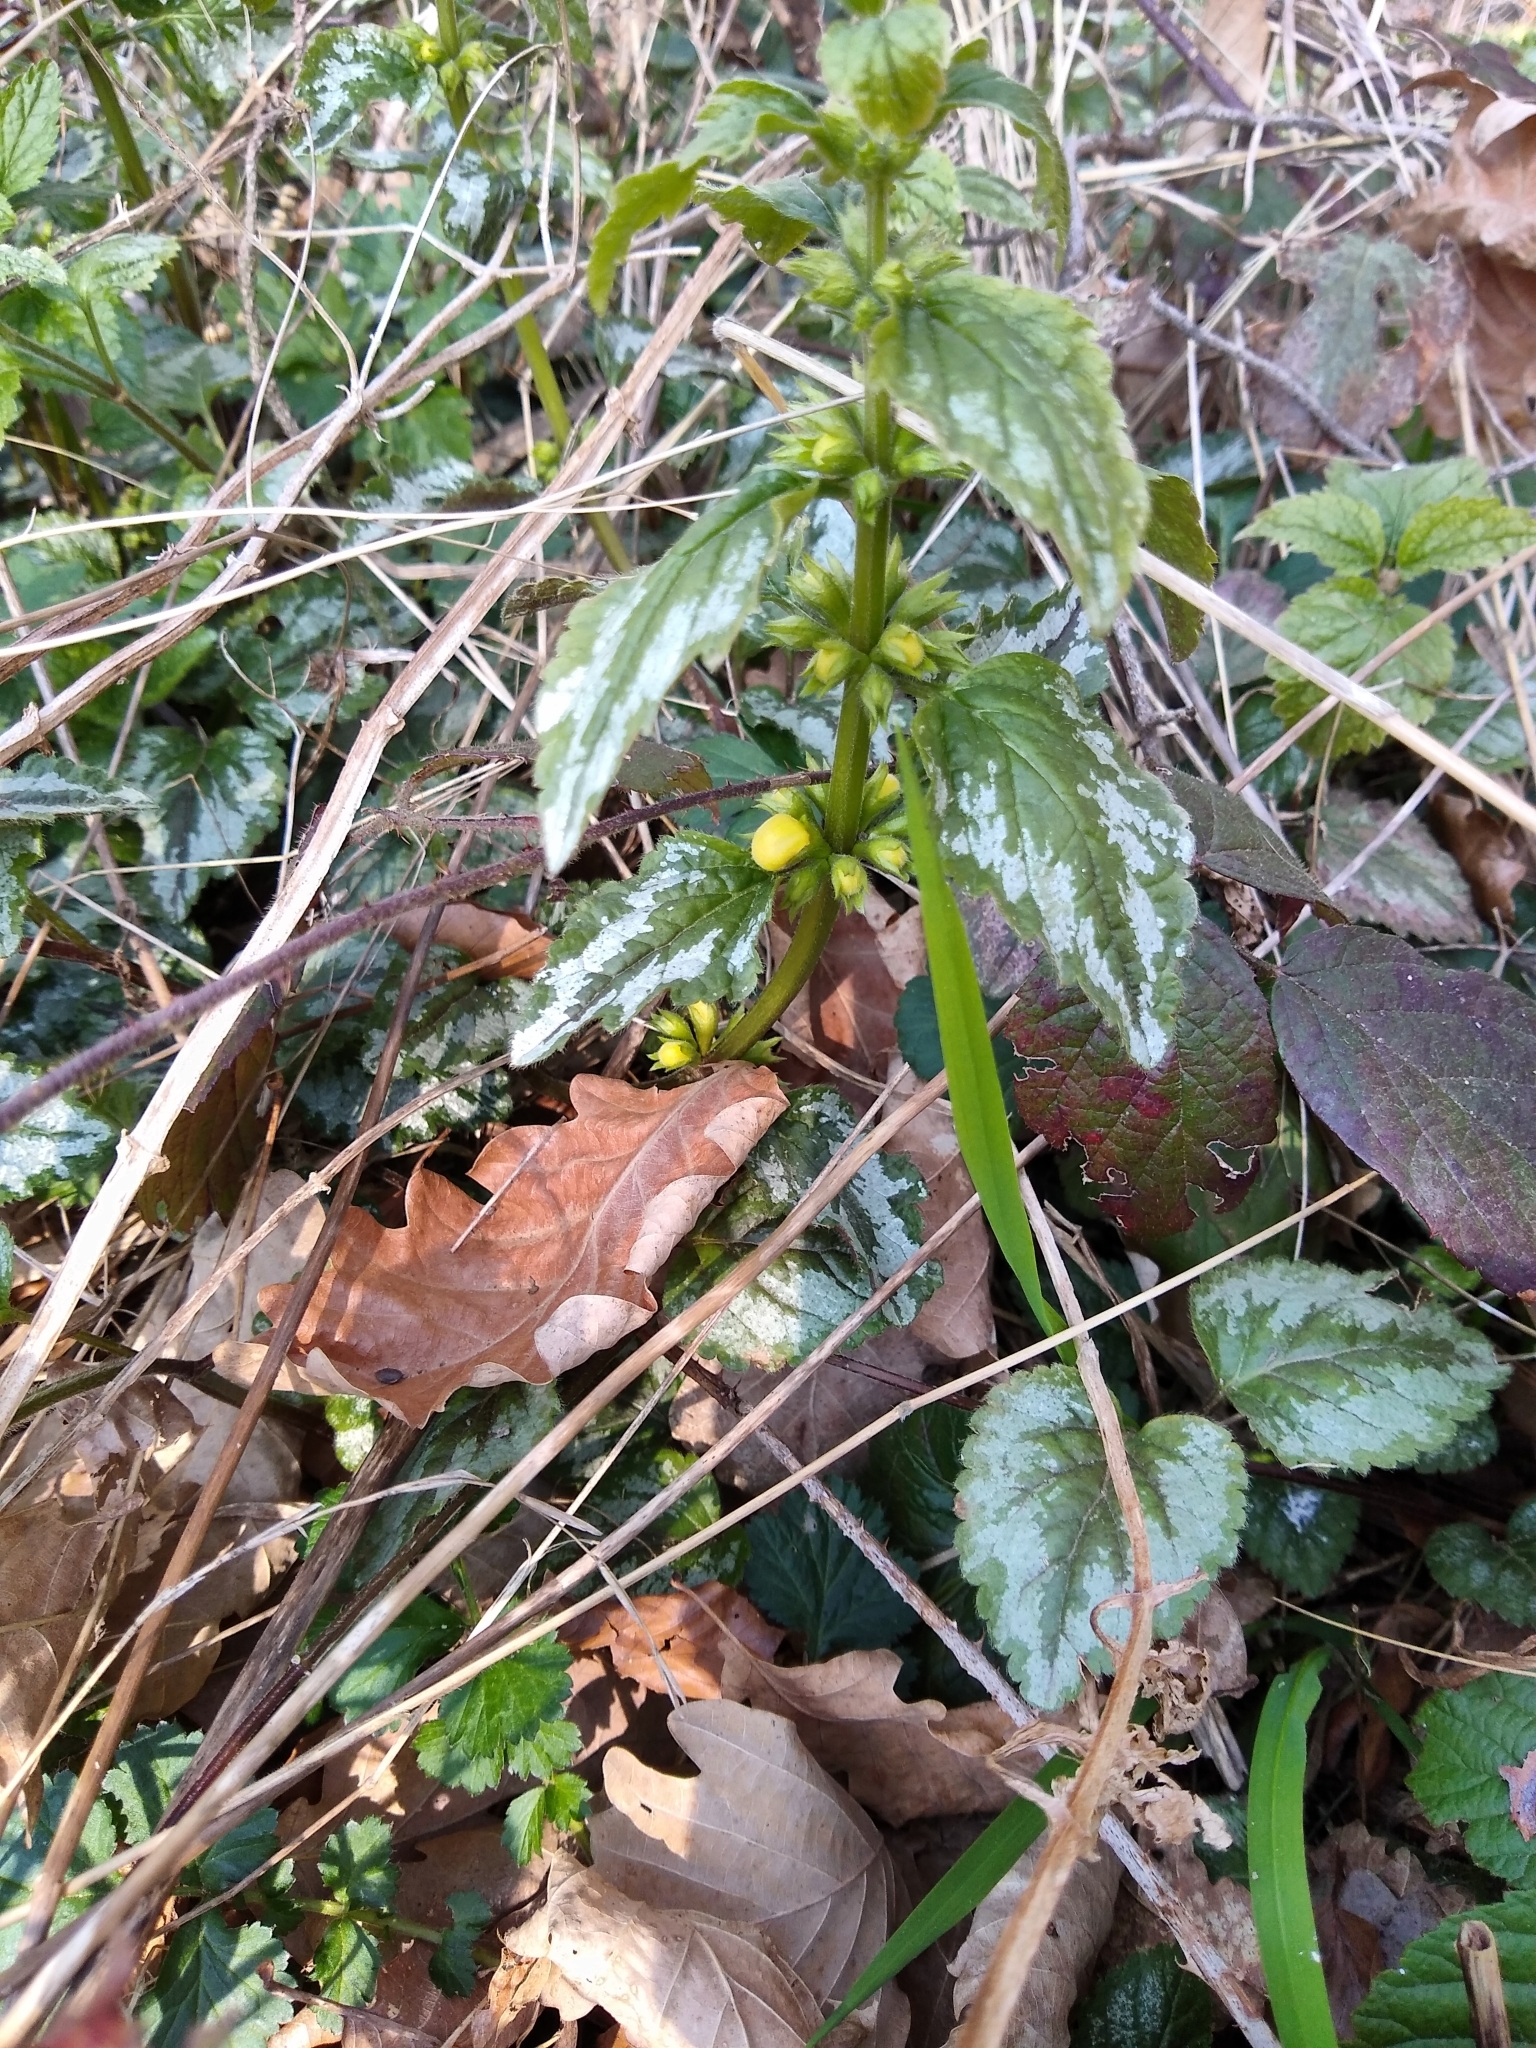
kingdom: Plantae
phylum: Tracheophyta
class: Magnoliopsida
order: Lamiales
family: Lamiaceae
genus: Lamium
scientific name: Lamium galeobdolon
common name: Yellow archangel
